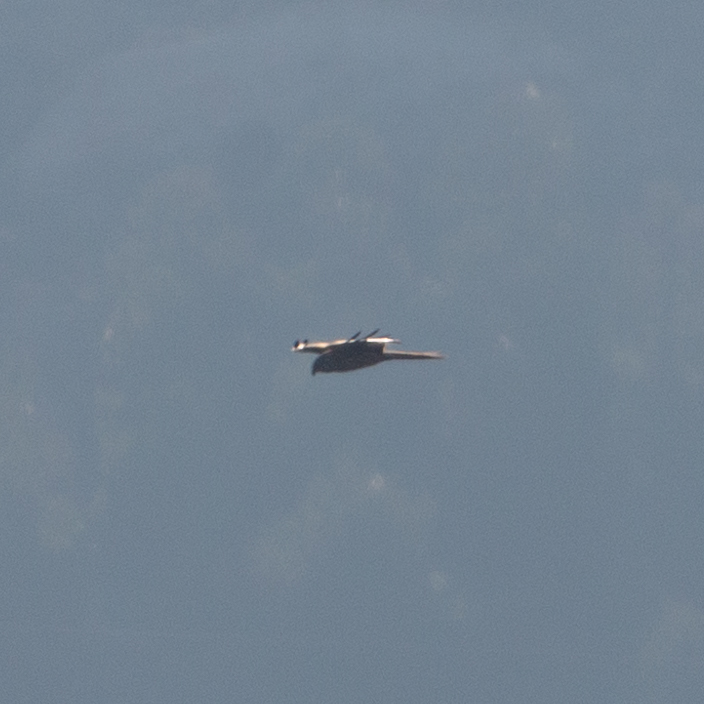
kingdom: Animalia
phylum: Chordata
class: Aves
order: Accipitriformes
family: Accipitridae
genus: Milvus
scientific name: Milvus milvus
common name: Red kite
